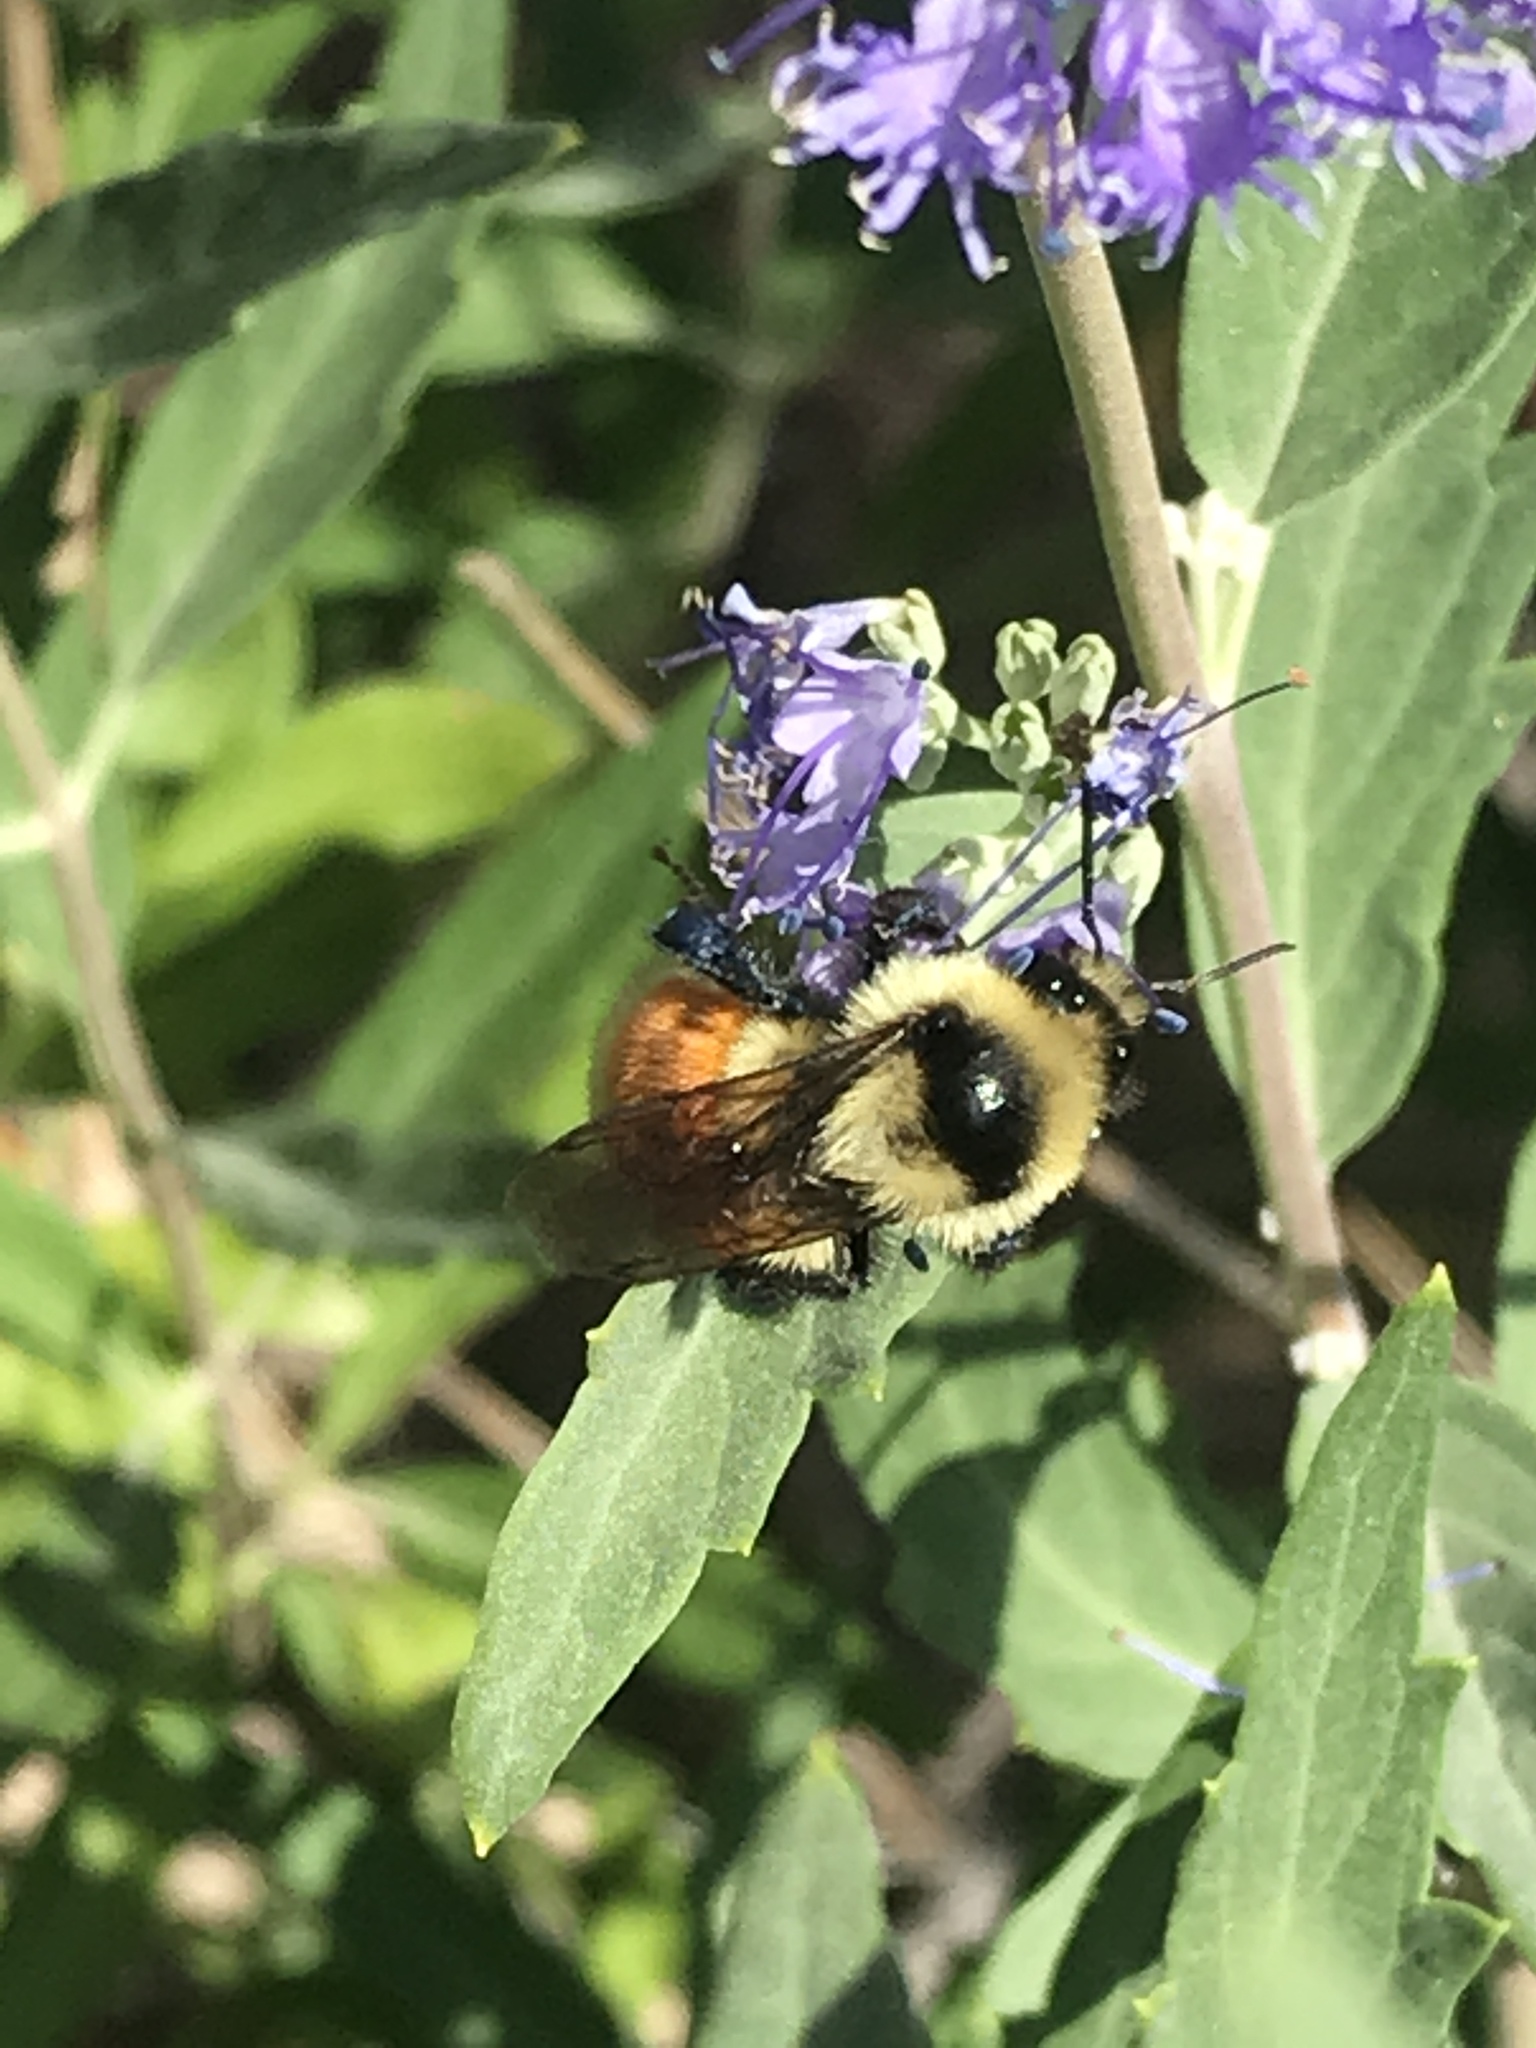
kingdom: Animalia
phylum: Arthropoda
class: Insecta
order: Hymenoptera
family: Apidae
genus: Bombus
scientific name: Bombus huntii
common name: Hunt bumble bee
